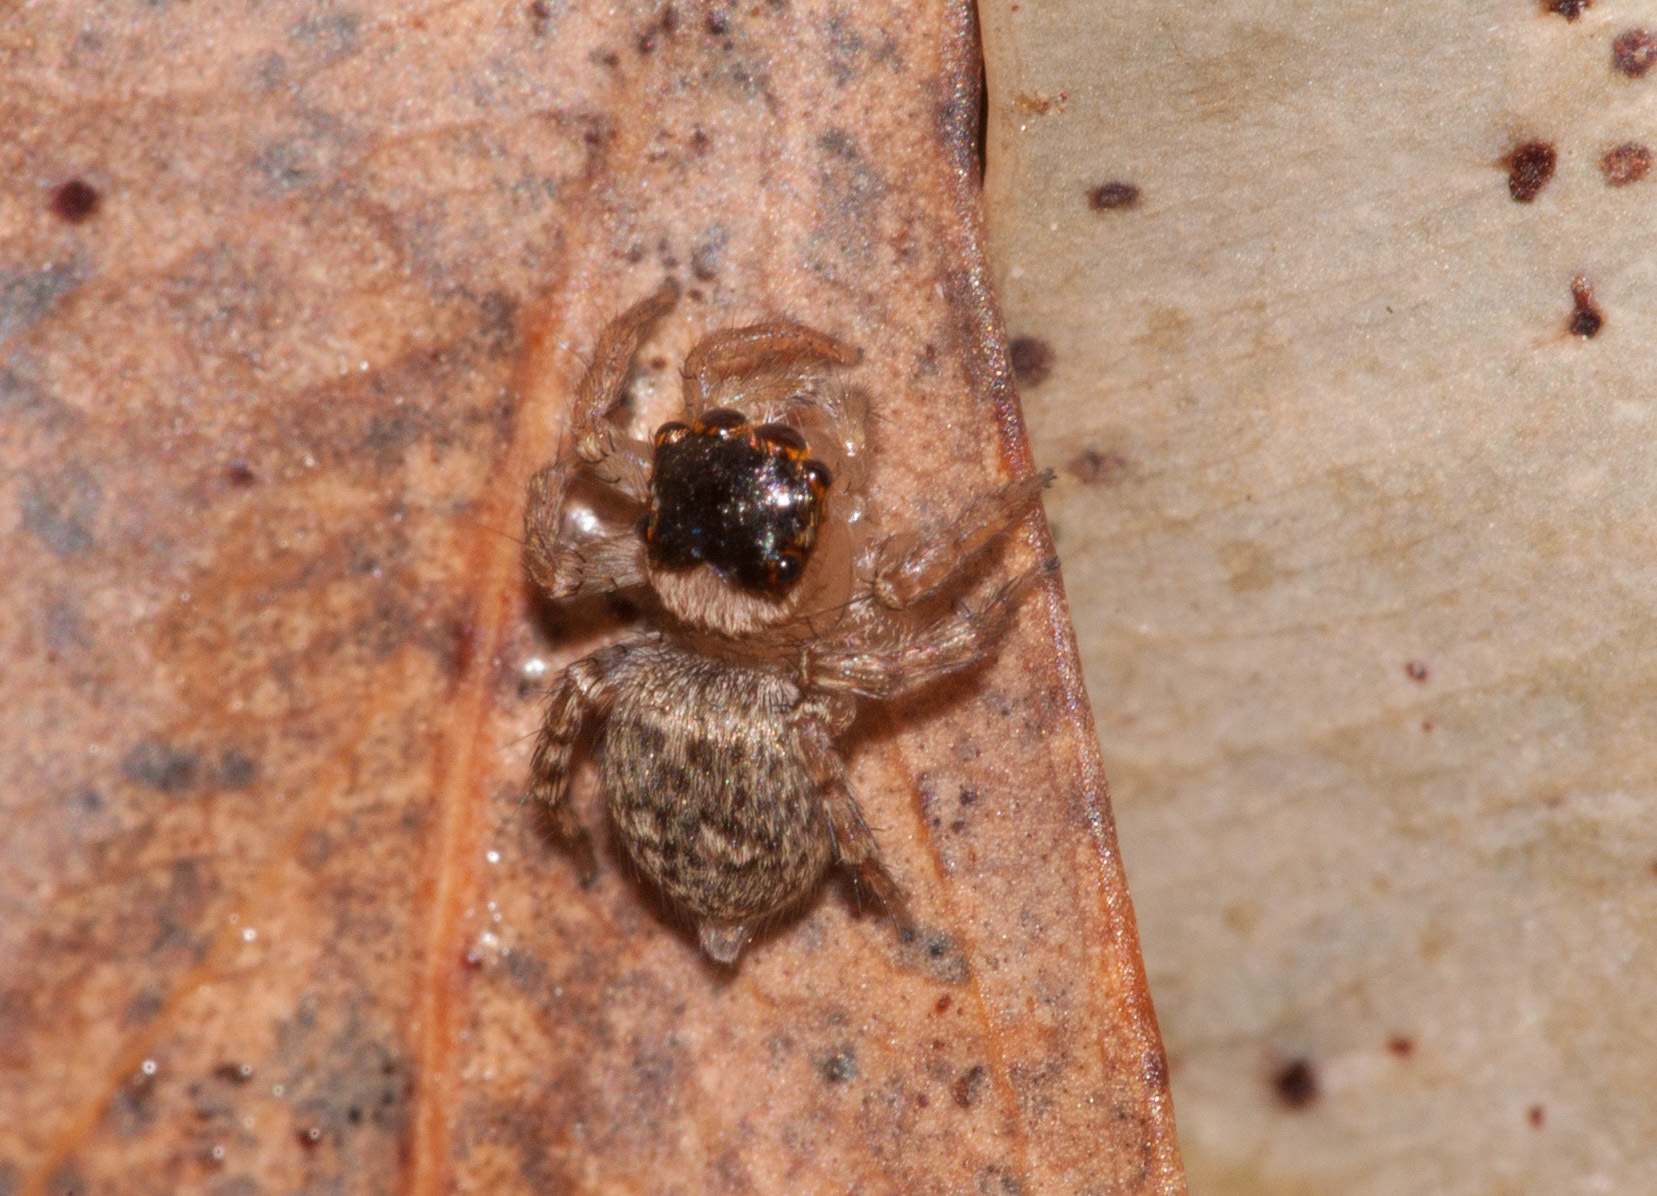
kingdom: Animalia
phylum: Arthropoda
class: Arachnida
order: Araneae
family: Salticidae
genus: Maratus
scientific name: Maratus griseus
